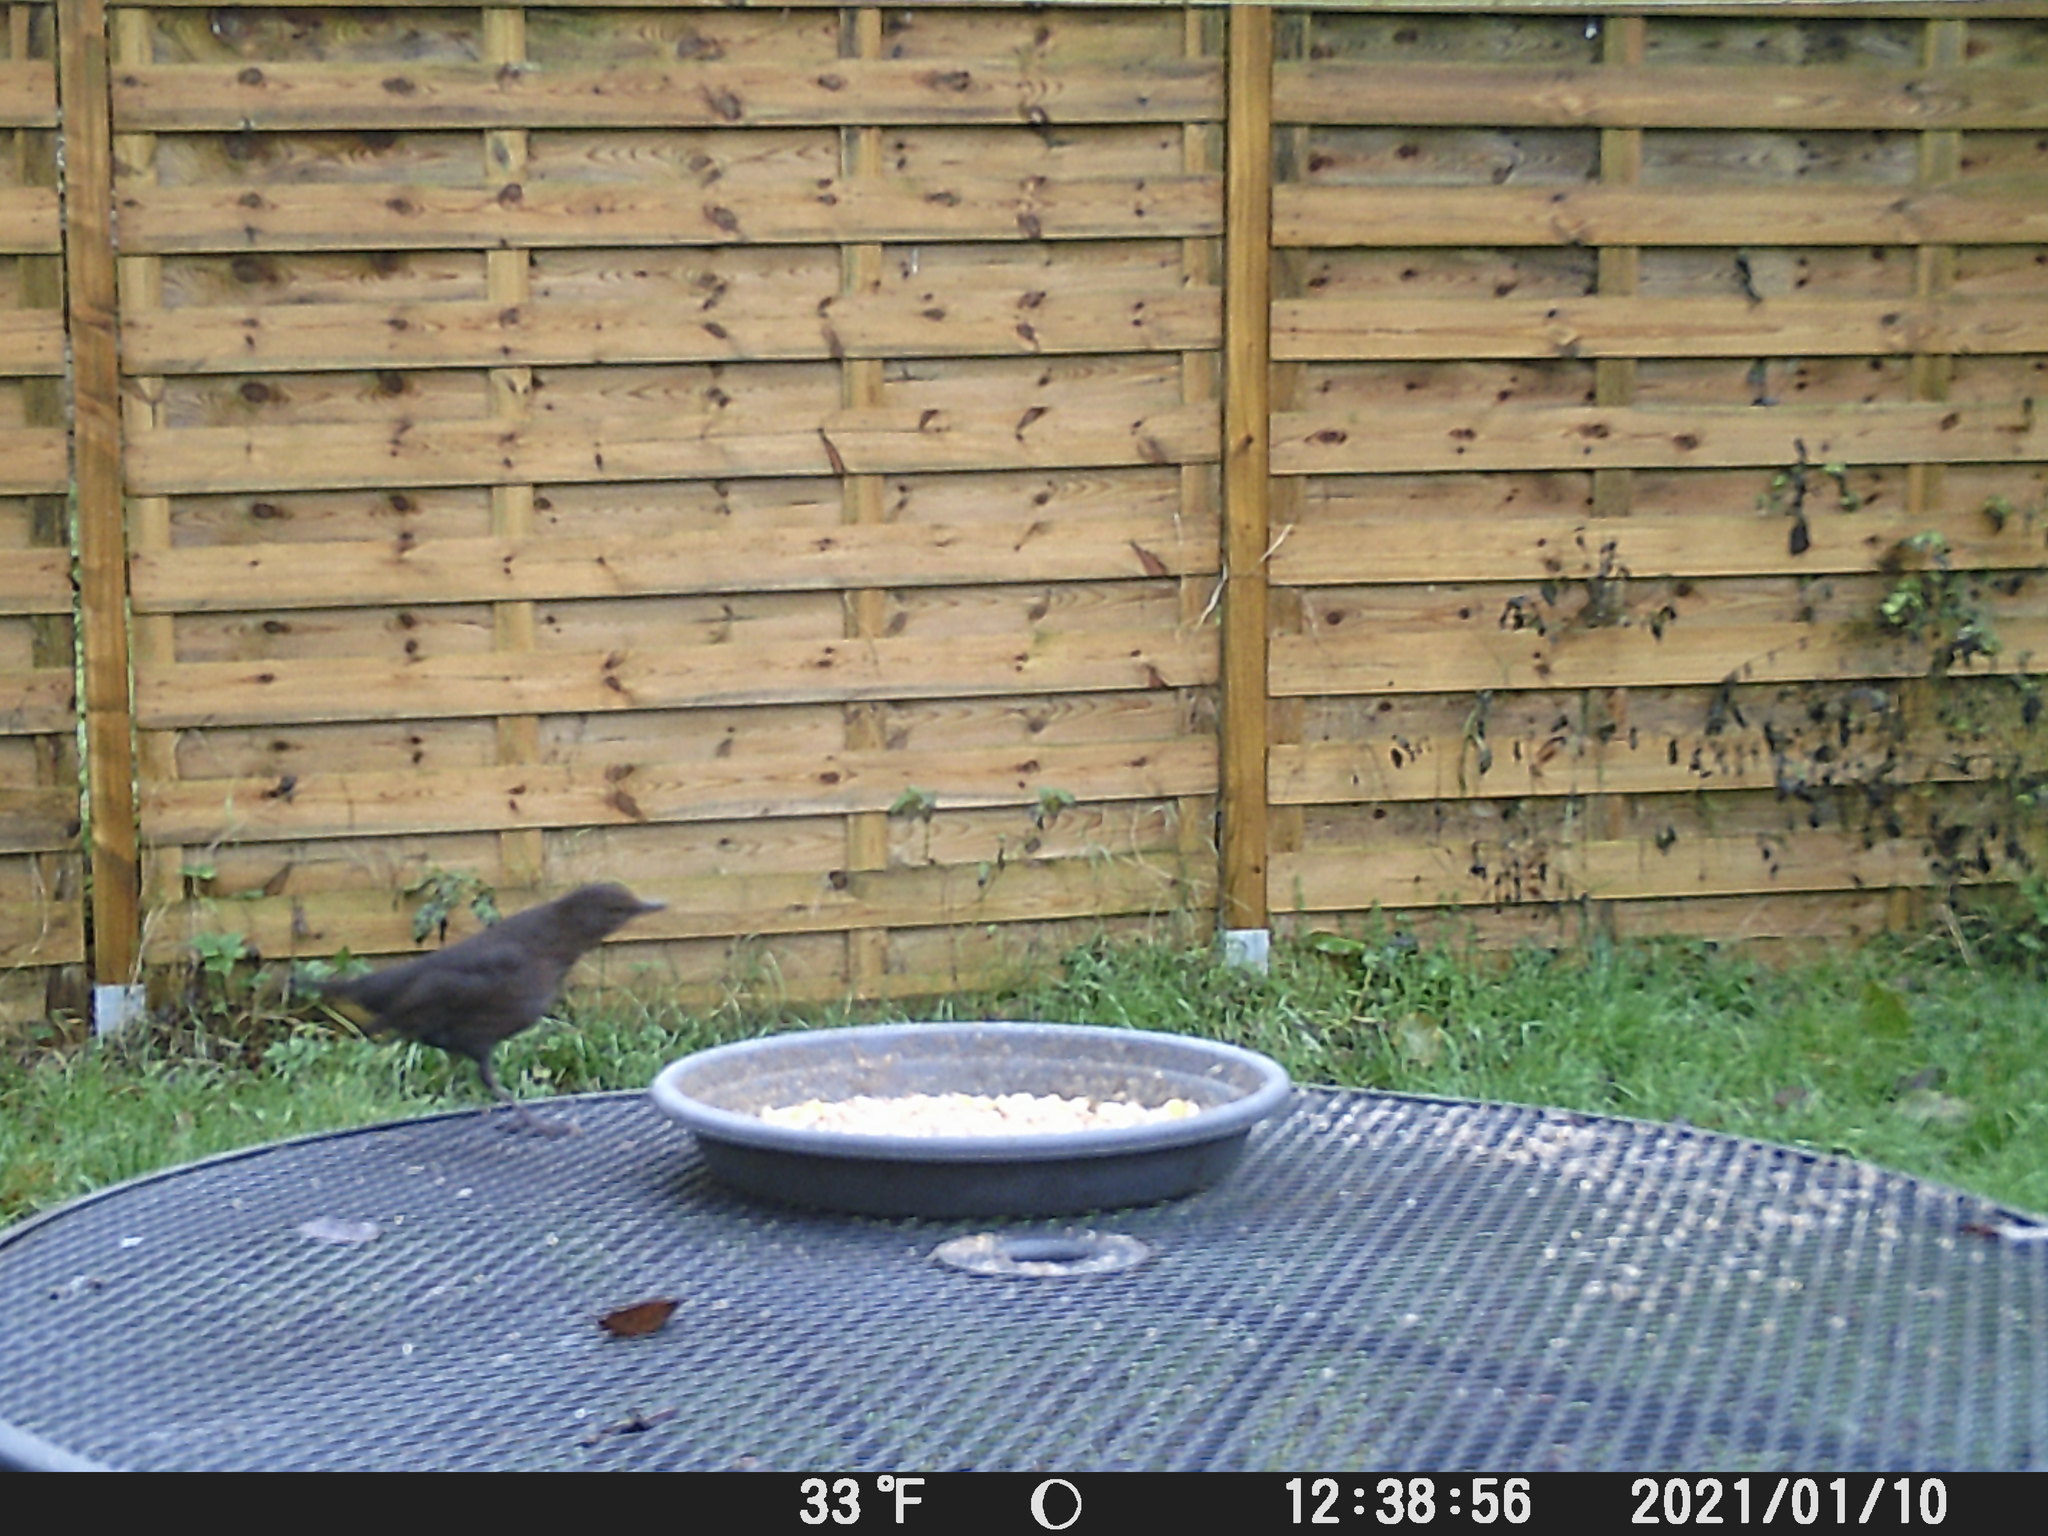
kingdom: Animalia
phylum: Chordata
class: Aves
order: Passeriformes
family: Turdidae
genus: Turdus
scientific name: Turdus merula
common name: Common blackbird
